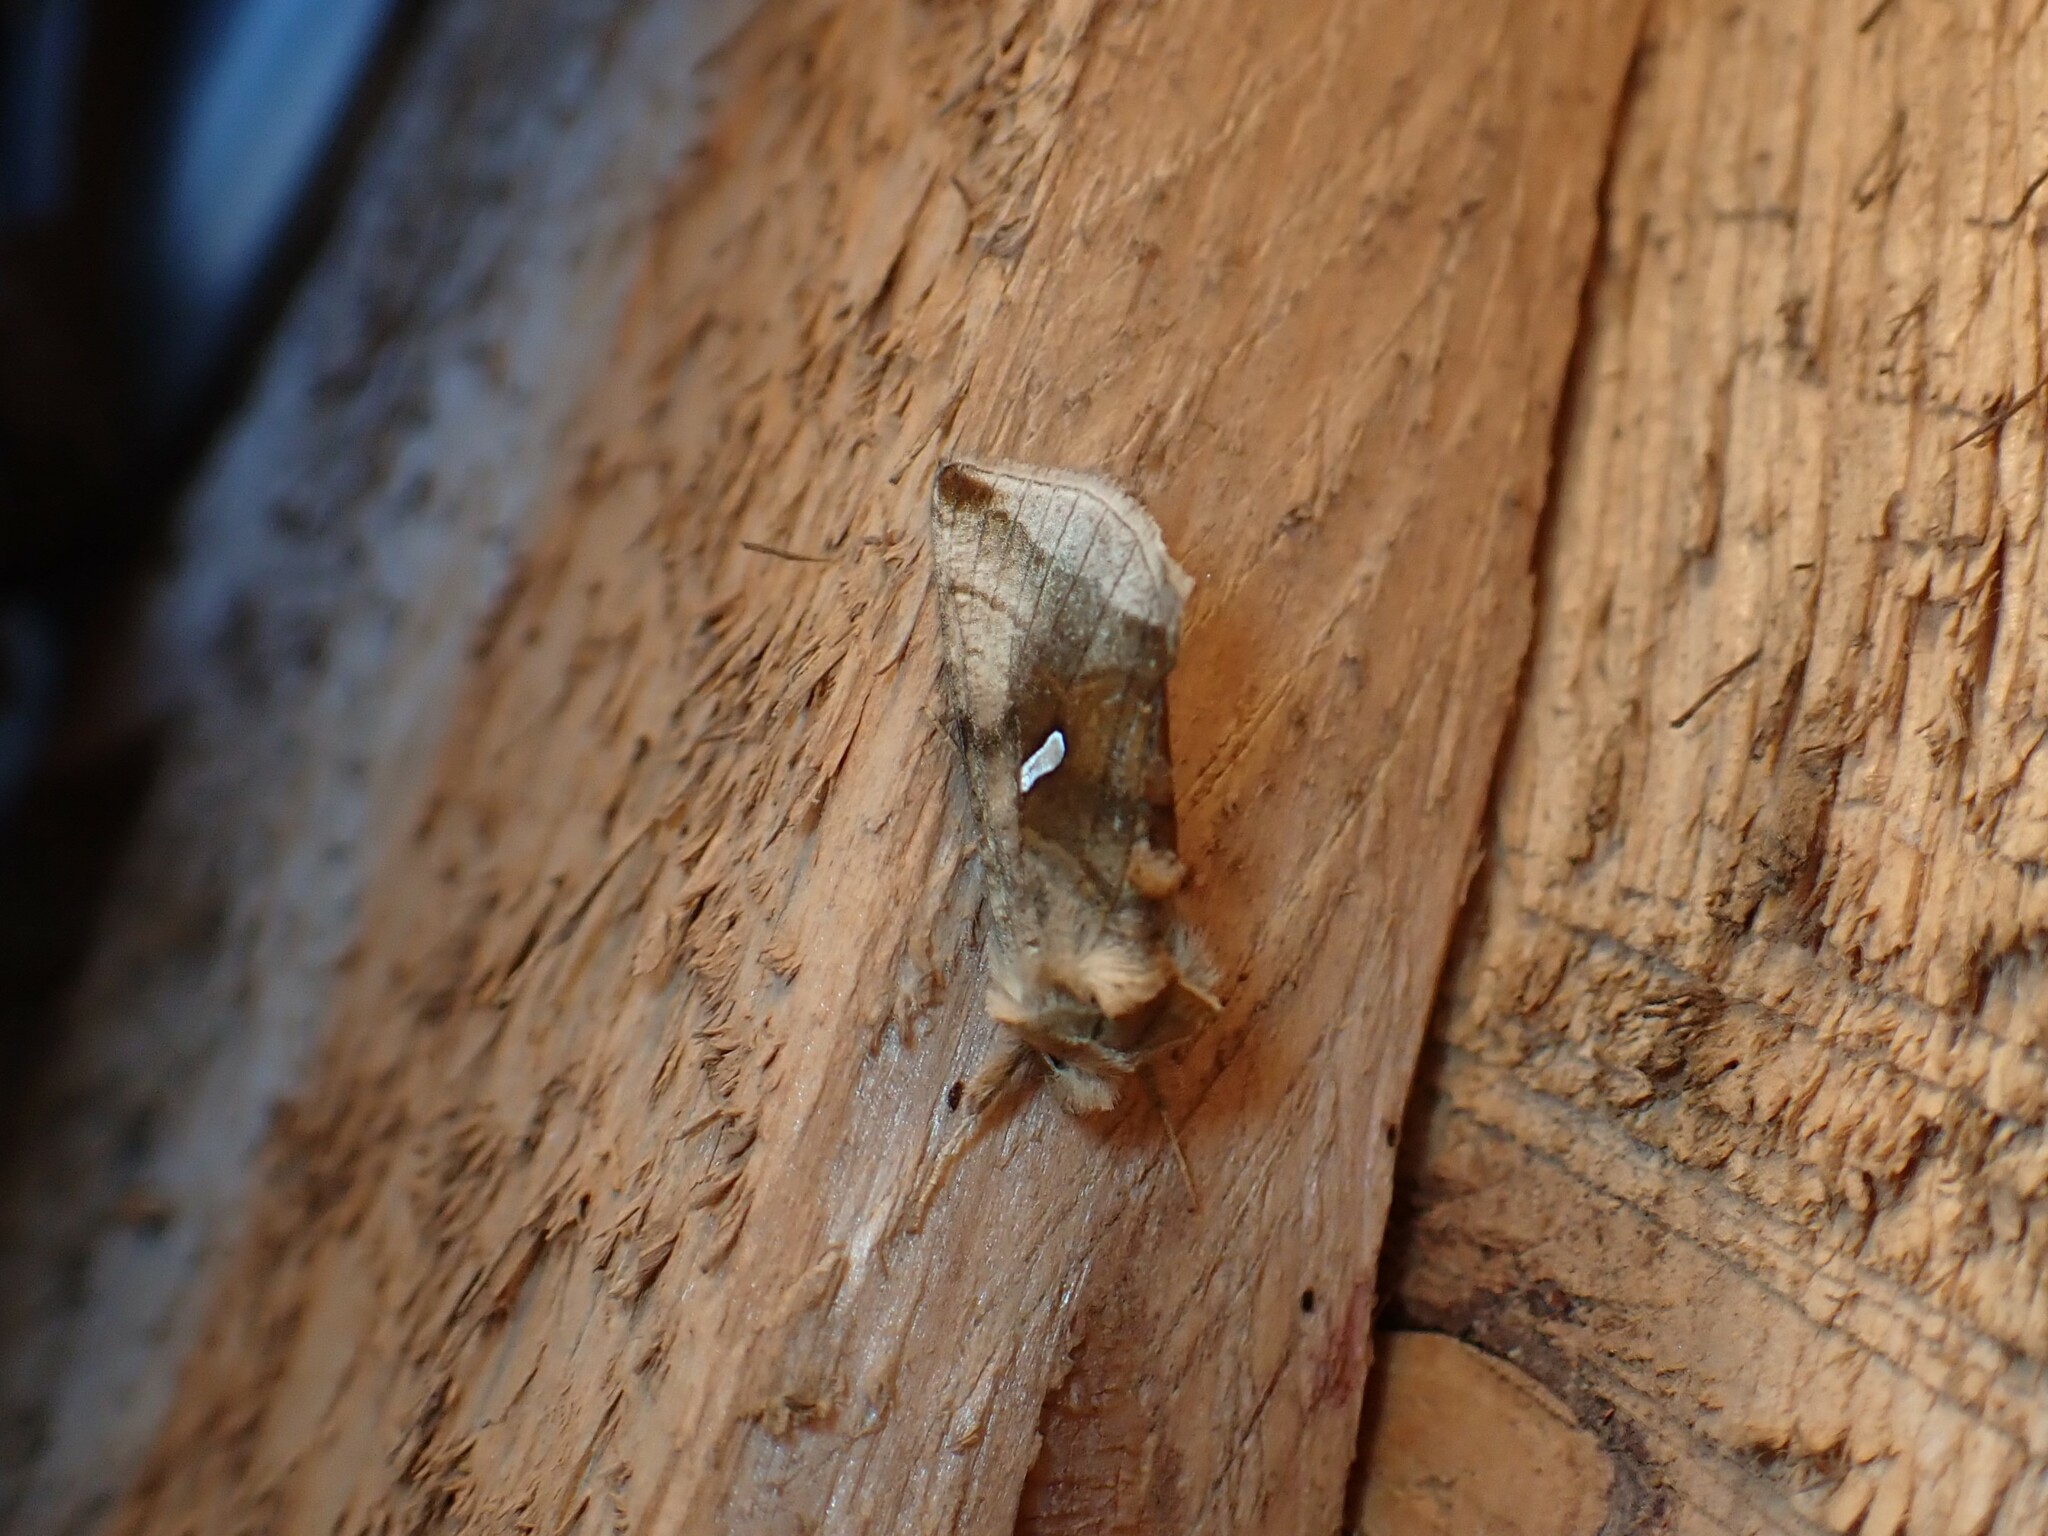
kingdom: Animalia
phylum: Arthropoda
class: Insecta
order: Lepidoptera
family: Noctuidae
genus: Autographa
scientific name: Autographa metallica
